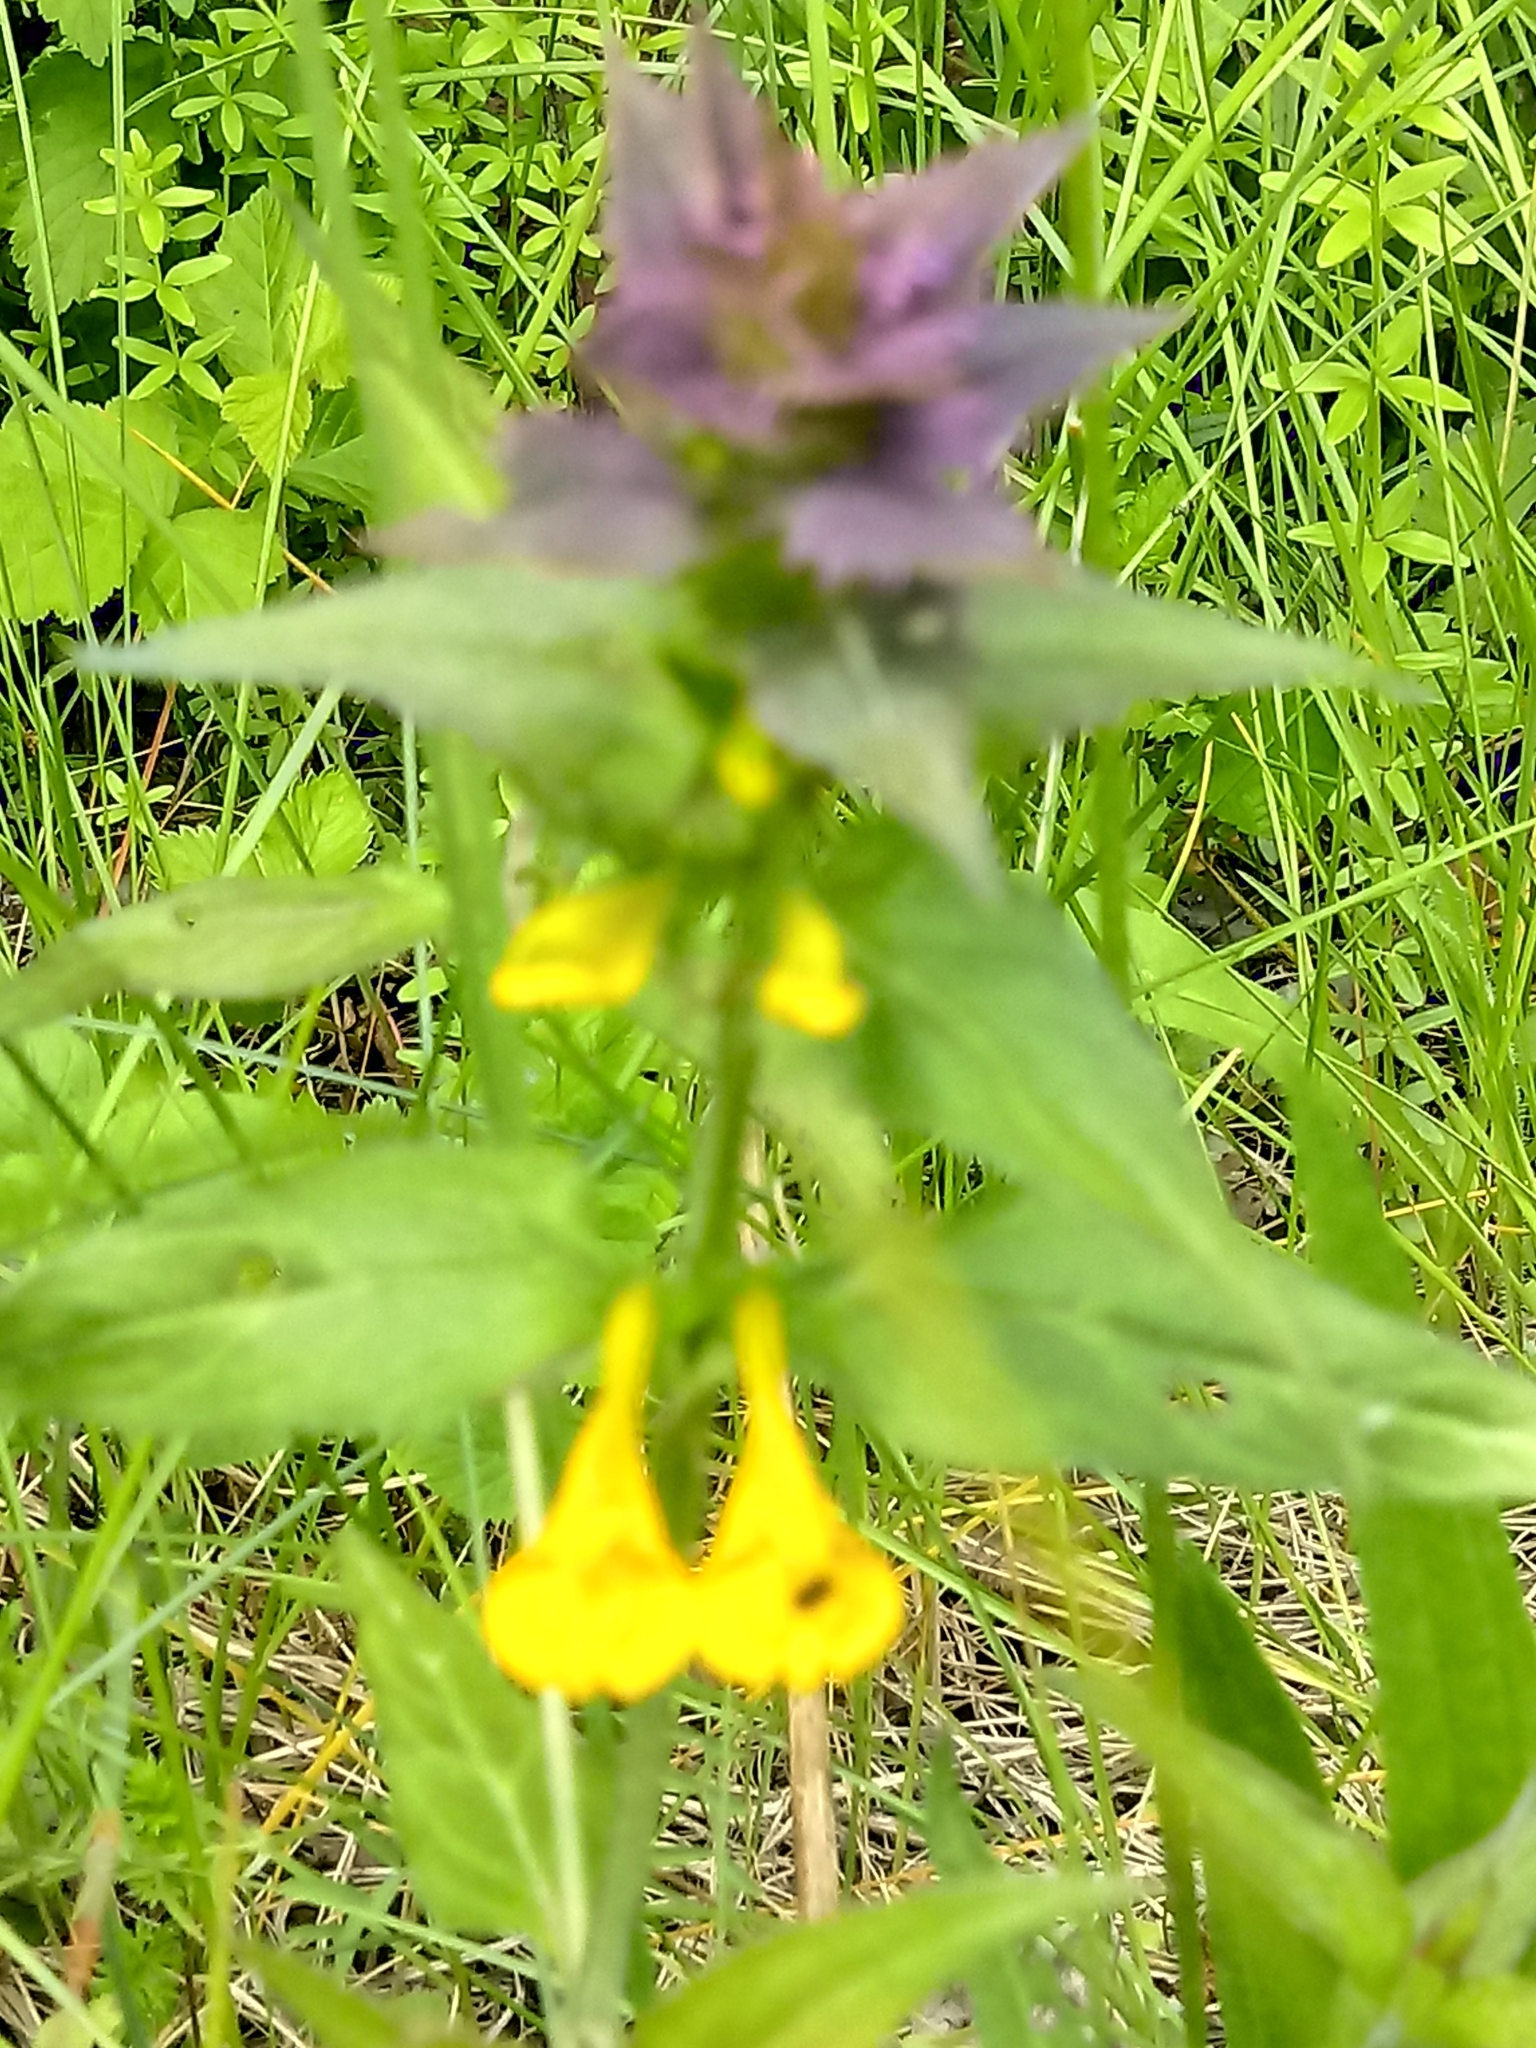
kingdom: Plantae
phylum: Tracheophyta
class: Magnoliopsida
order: Lamiales
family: Orobanchaceae
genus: Melampyrum
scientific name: Melampyrum nemorosum
